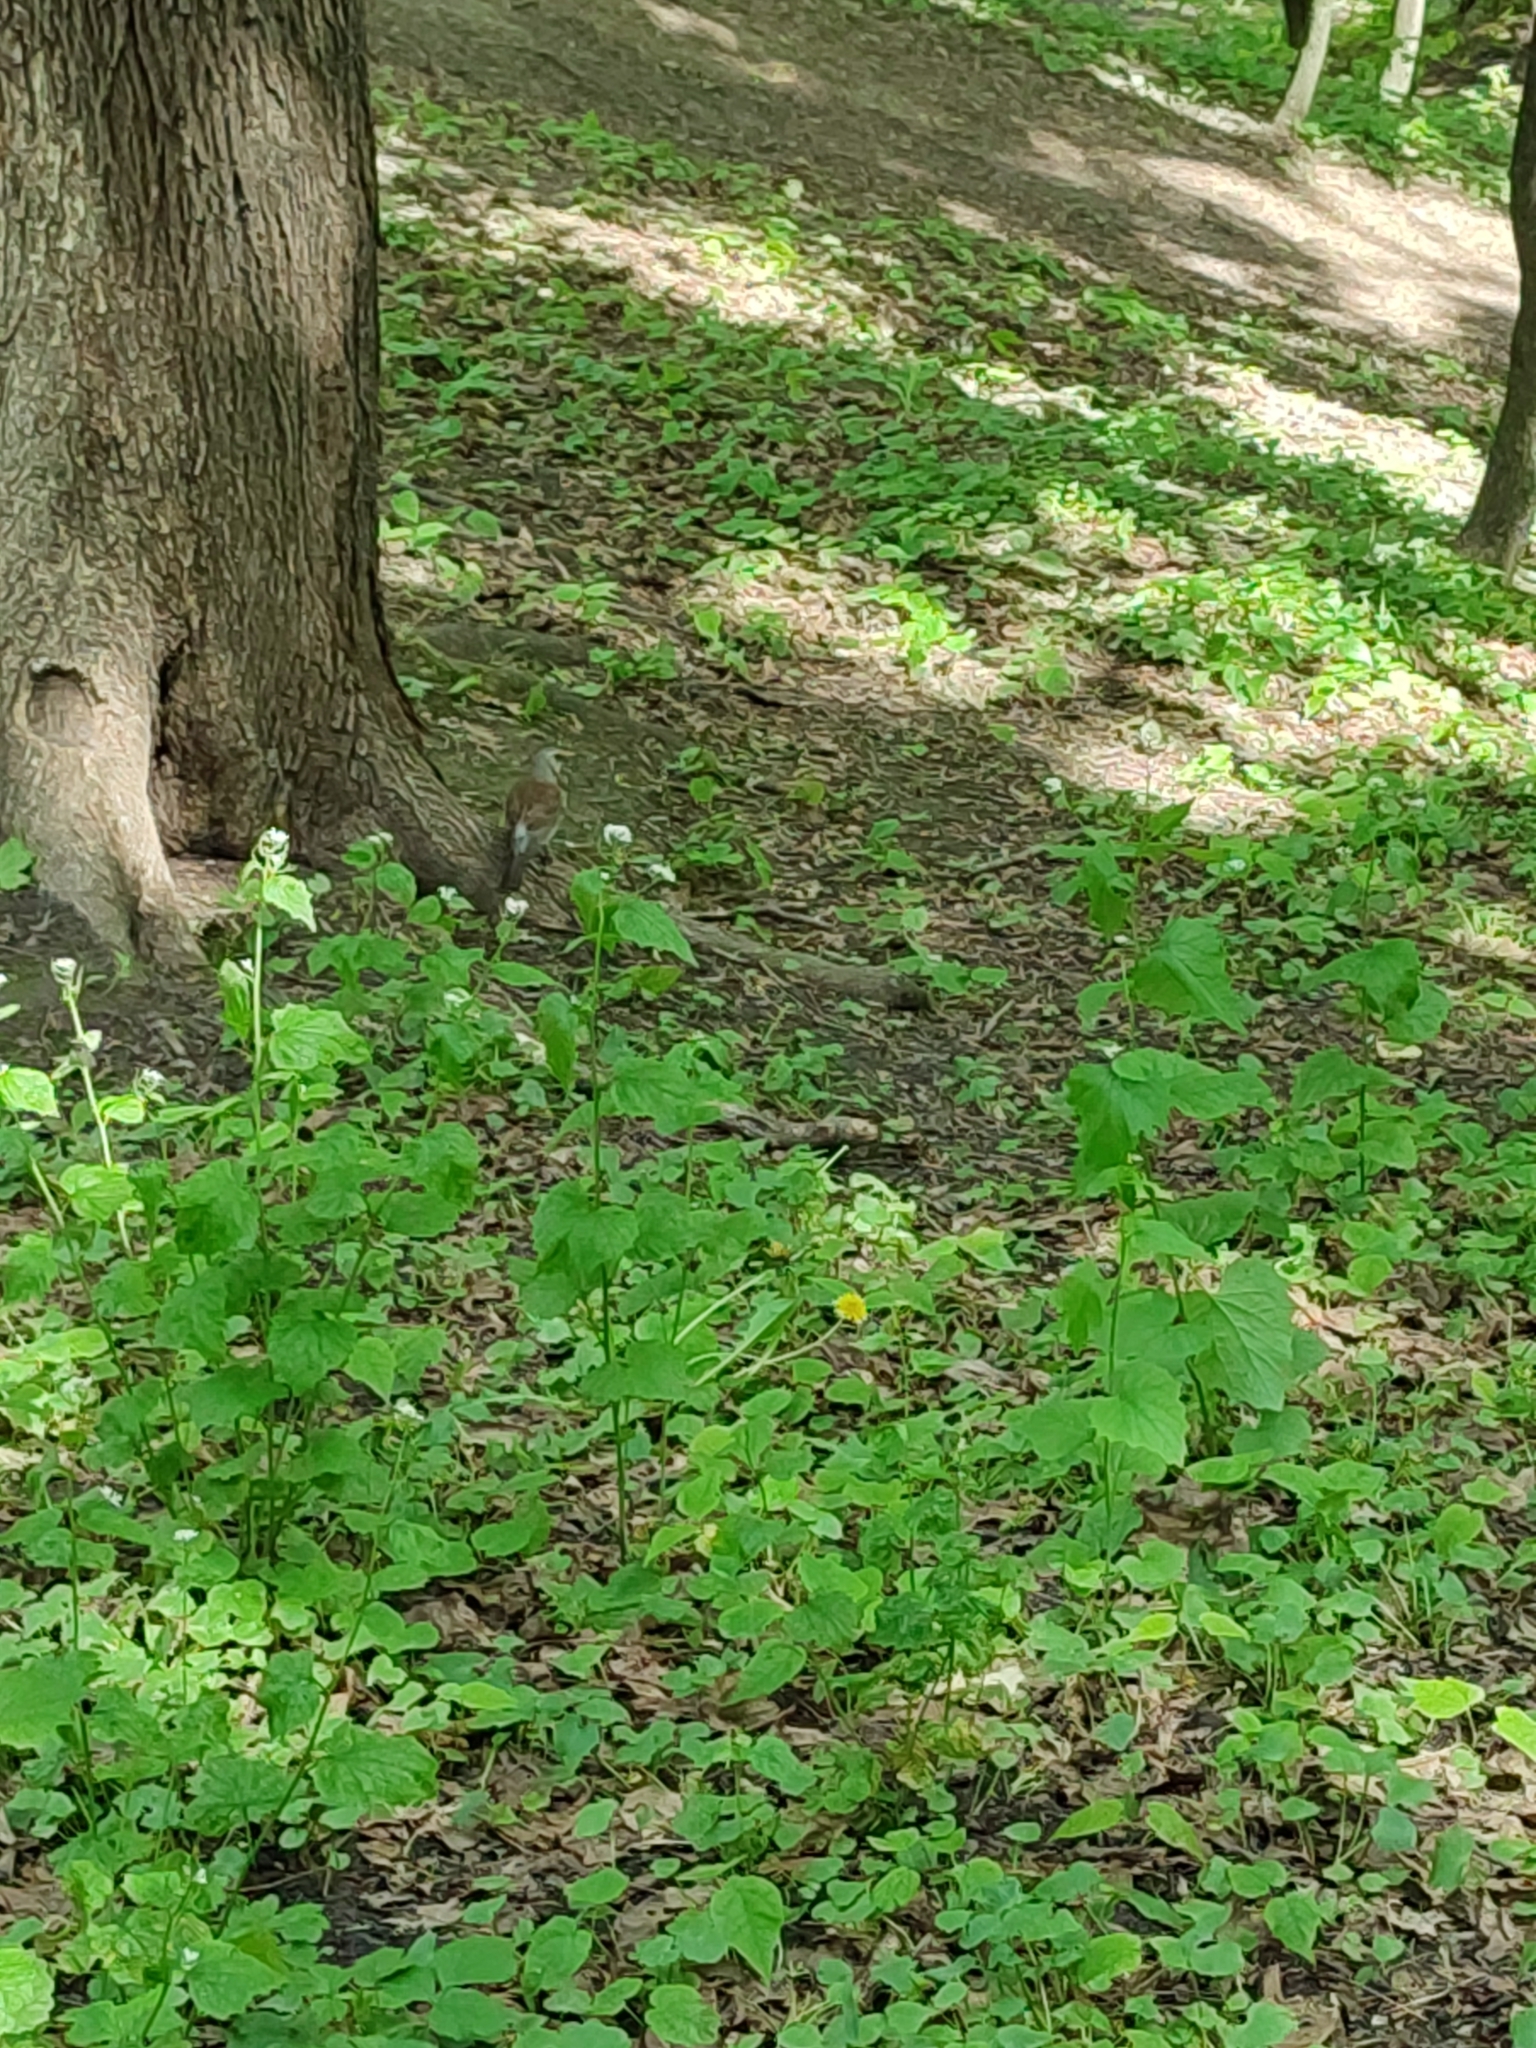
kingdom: Animalia
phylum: Chordata
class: Aves
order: Passeriformes
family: Turdidae
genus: Turdus
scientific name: Turdus pilaris
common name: Fieldfare
